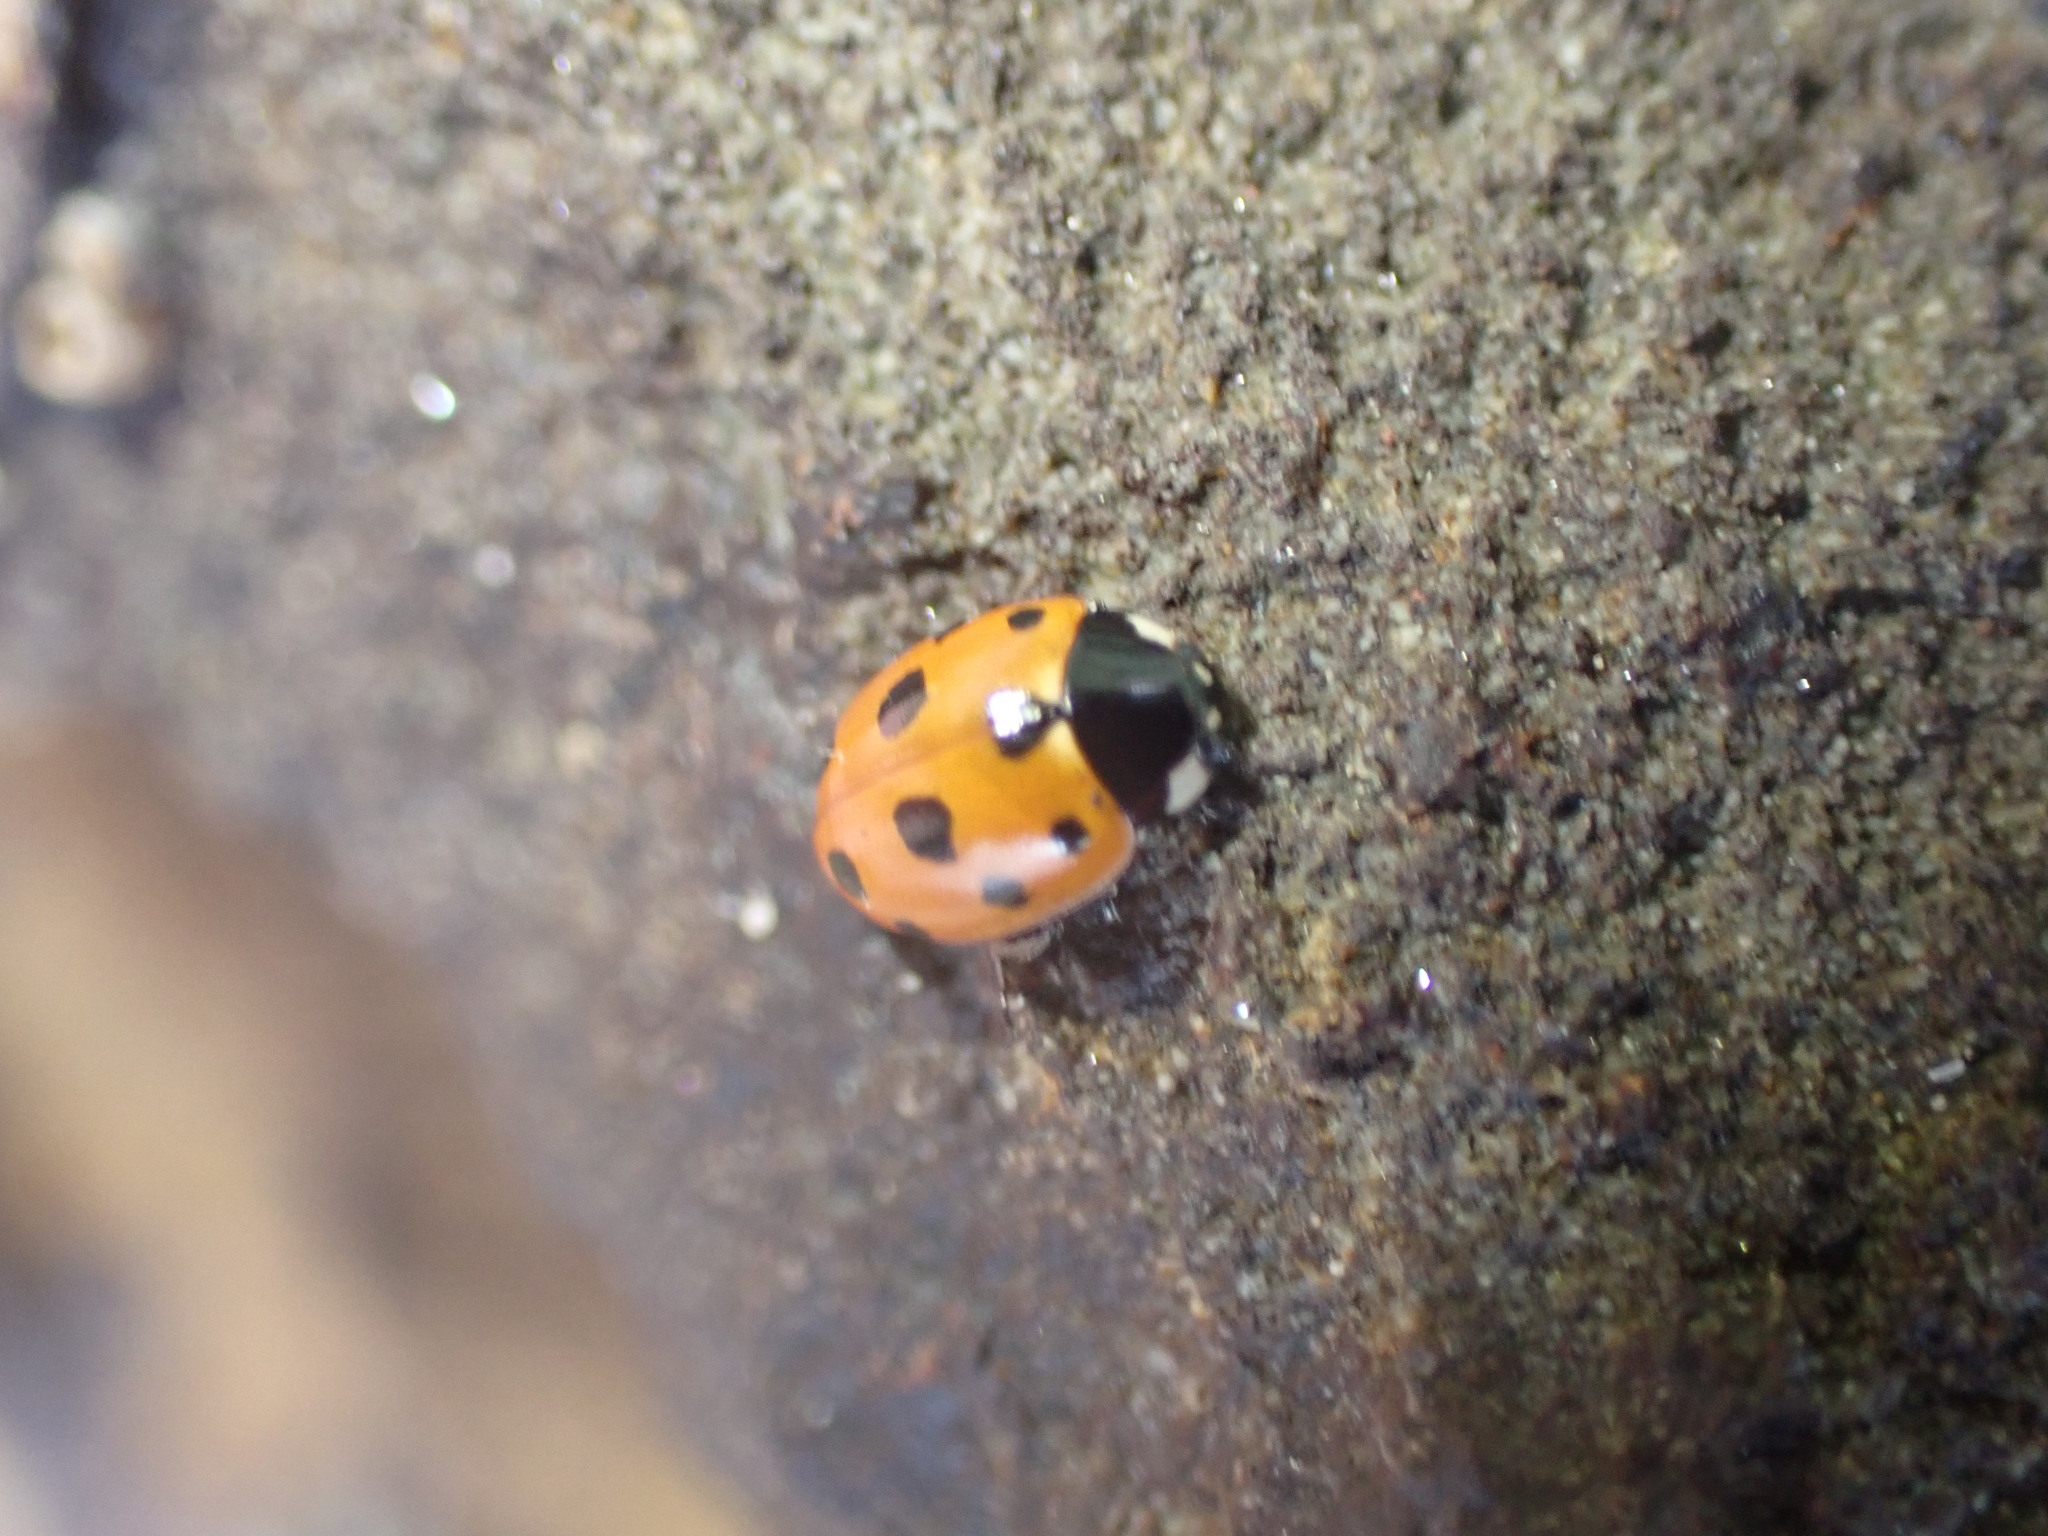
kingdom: Animalia
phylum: Arthropoda
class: Insecta
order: Coleoptera
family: Coccinellidae
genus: Coccinella
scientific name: Coccinella undecimpunctata
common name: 11-spot ladybird
